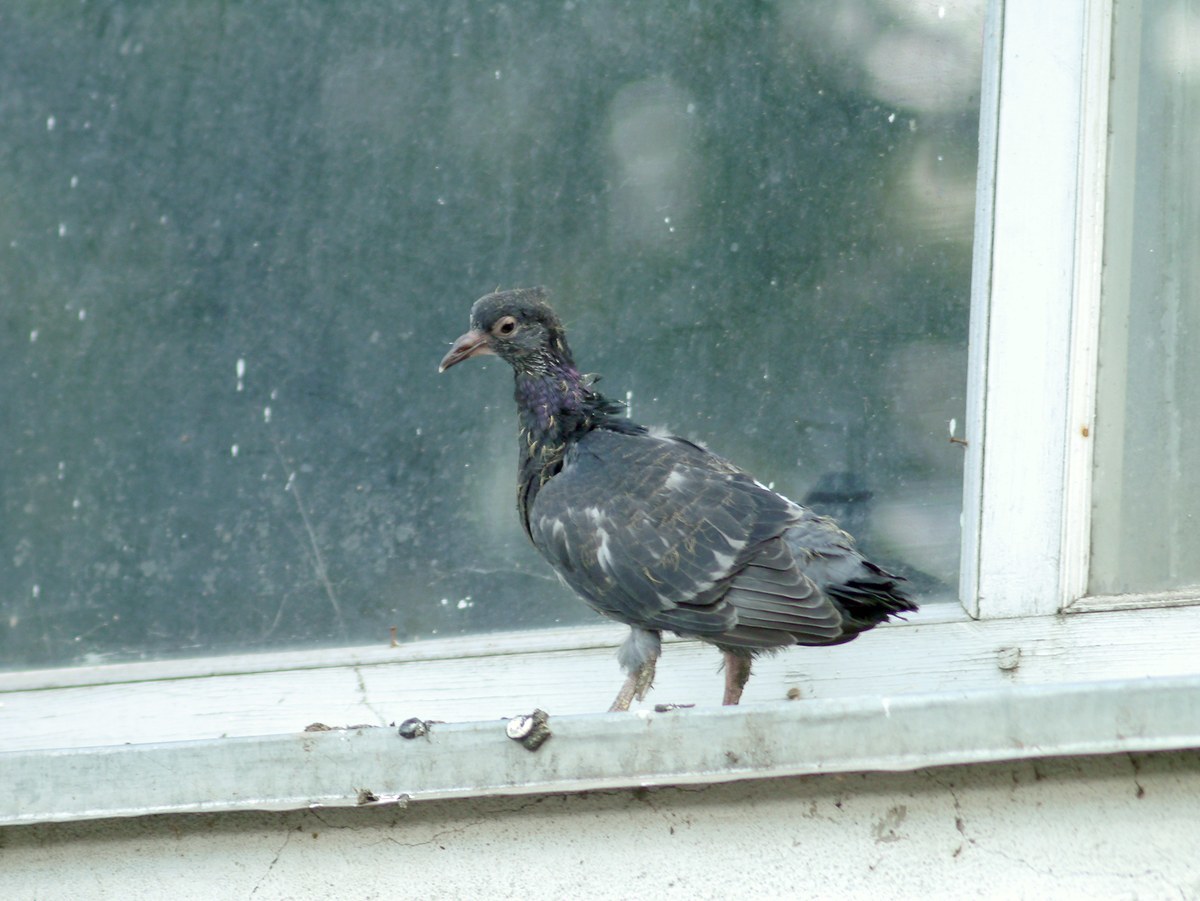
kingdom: Animalia
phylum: Chordata
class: Aves
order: Columbiformes
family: Columbidae
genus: Columba
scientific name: Columba livia
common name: Rock pigeon
